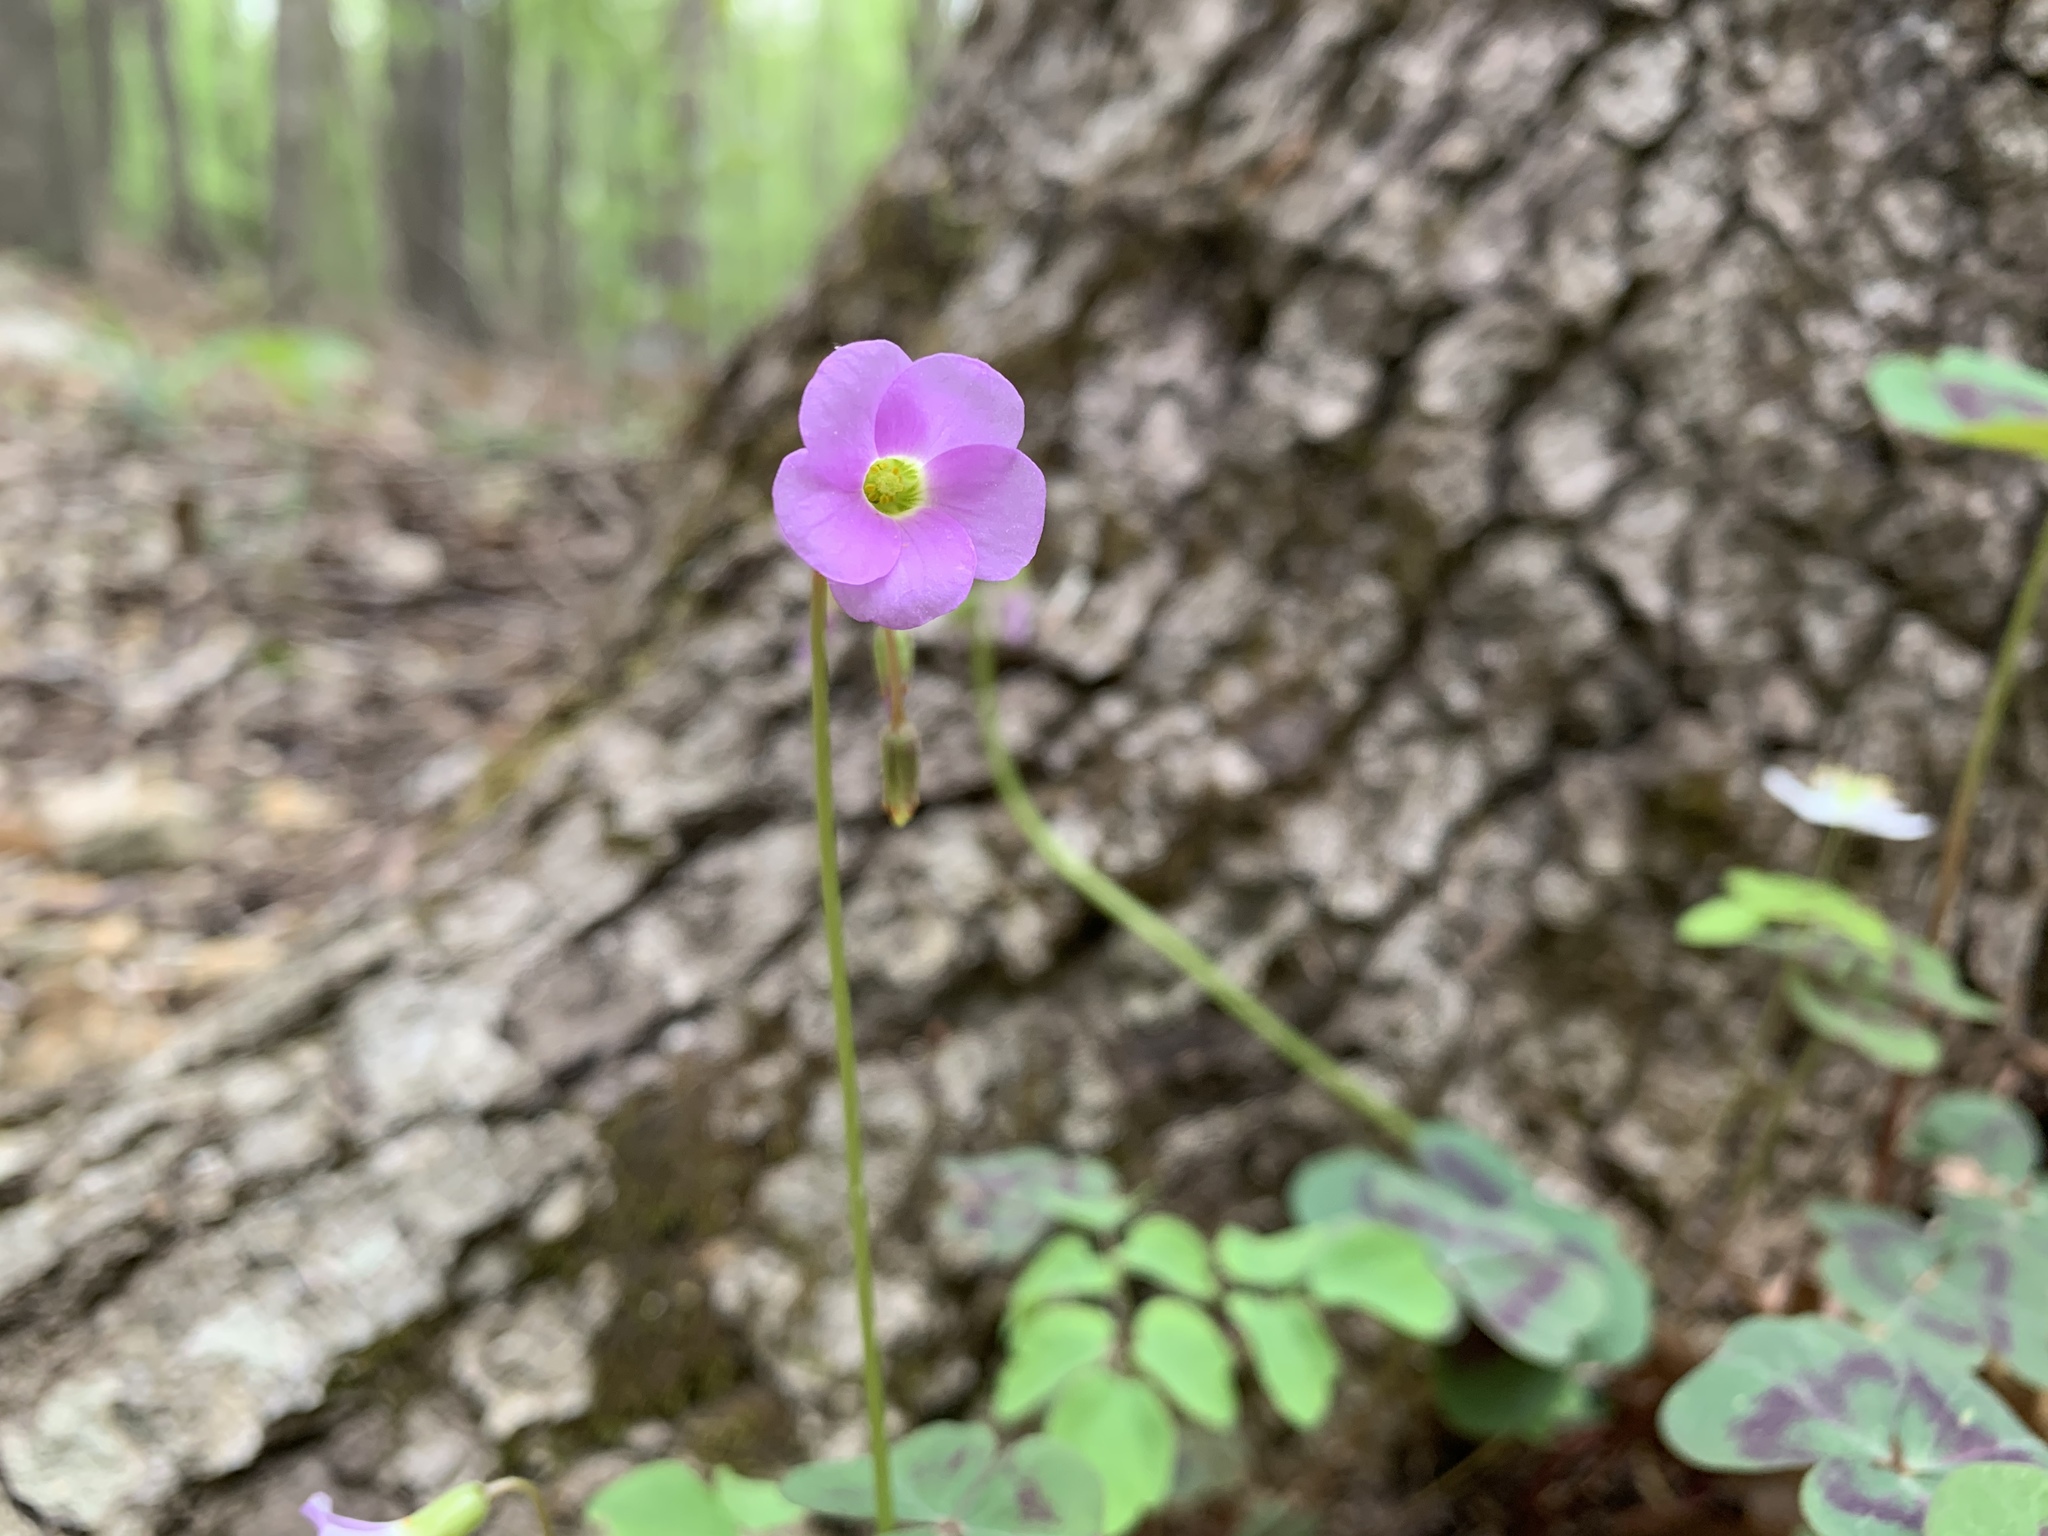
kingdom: Plantae
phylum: Tracheophyta
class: Magnoliopsida
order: Oxalidales
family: Oxalidaceae
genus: Oxalis
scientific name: Oxalis violacea
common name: Violet wood-sorrel
